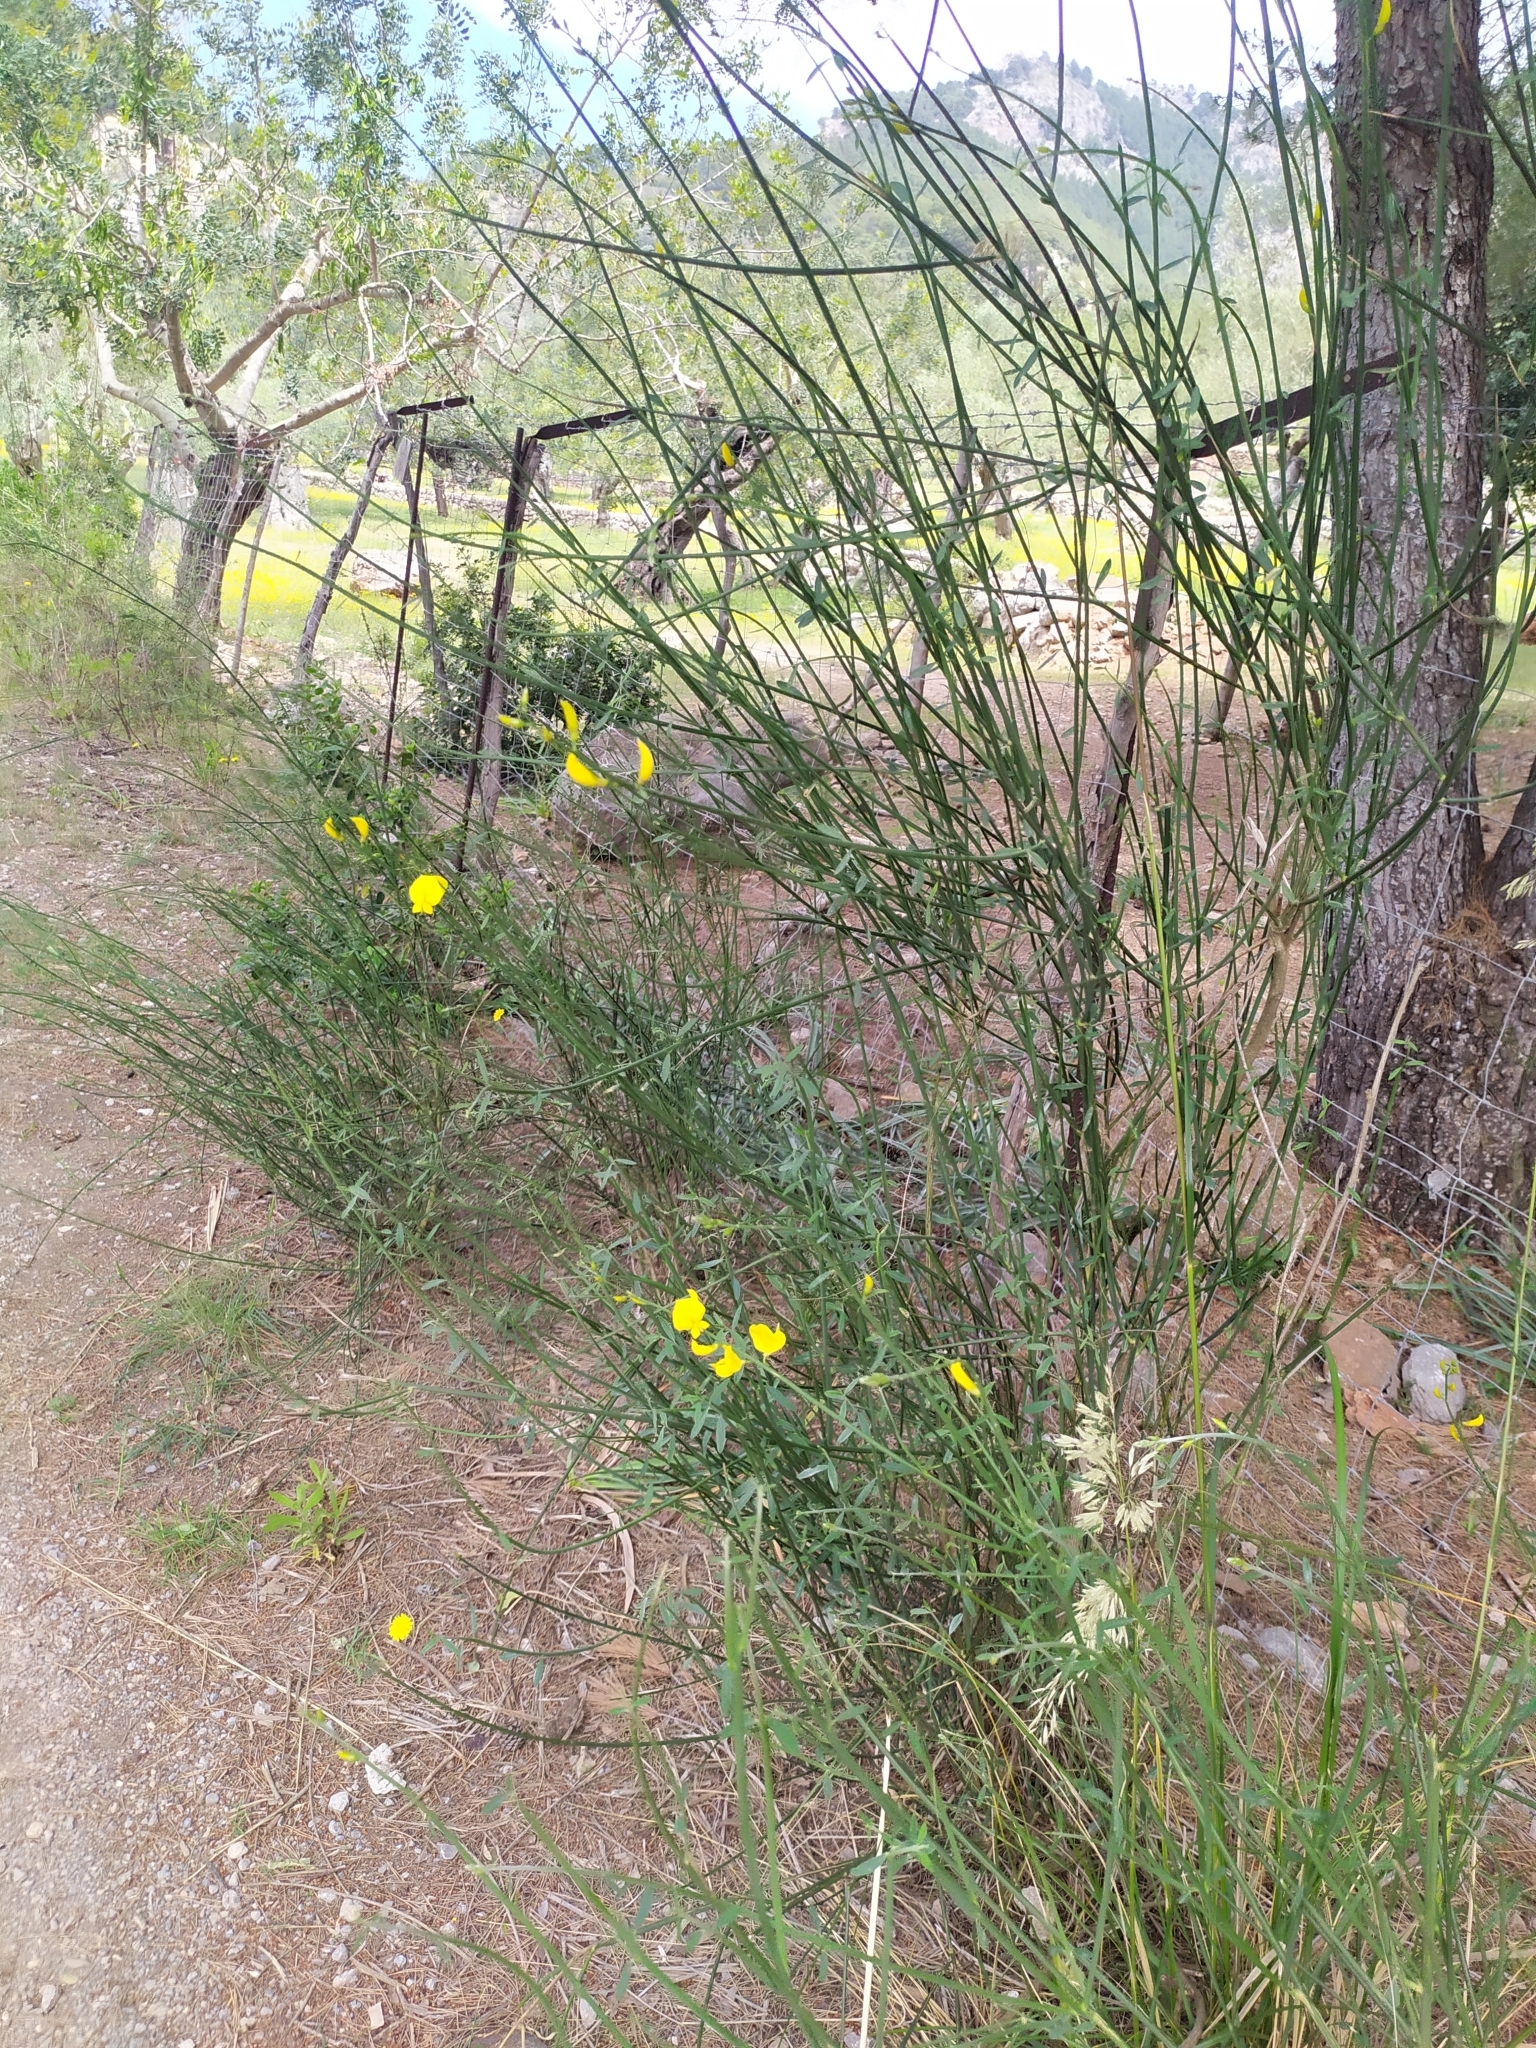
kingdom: Plantae
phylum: Tracheophyta
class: Magnoliopsida
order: Fabales
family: Fabaceae
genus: Spartium
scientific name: Spartium junceum
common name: Spanish broom
